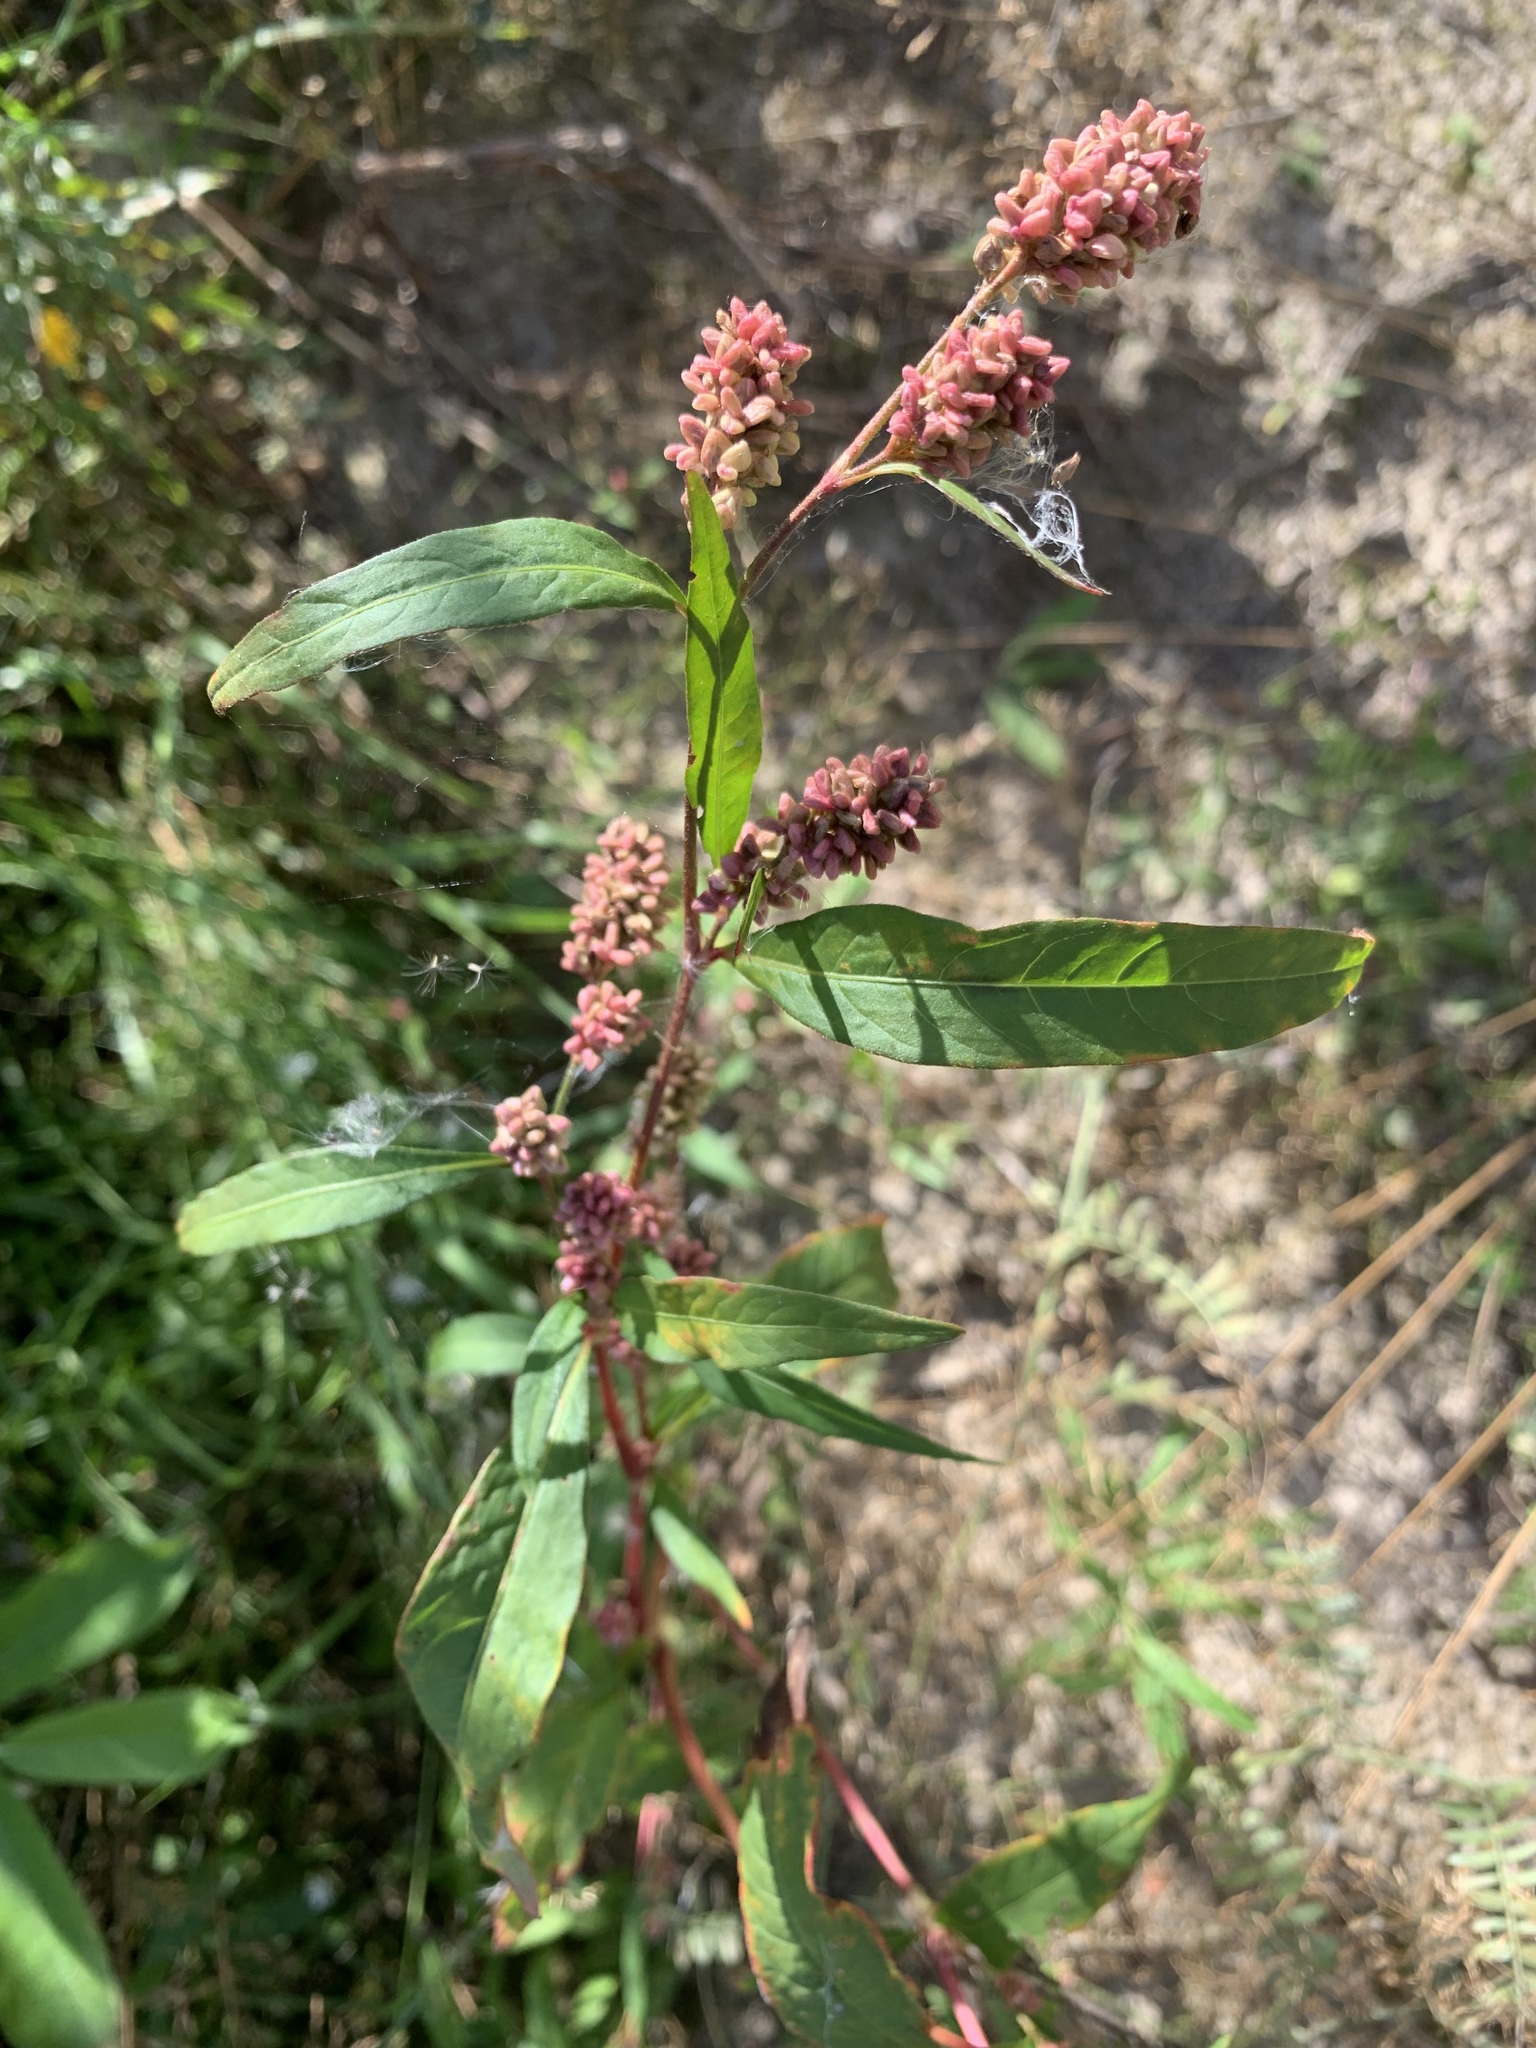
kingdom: Plantae
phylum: Tracheophyta
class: Magnoliopsida
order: Caryophyllales
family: Polygonaceae
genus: Persicaria
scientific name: Persicaria lapathifolia
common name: Curlytop knotweed
